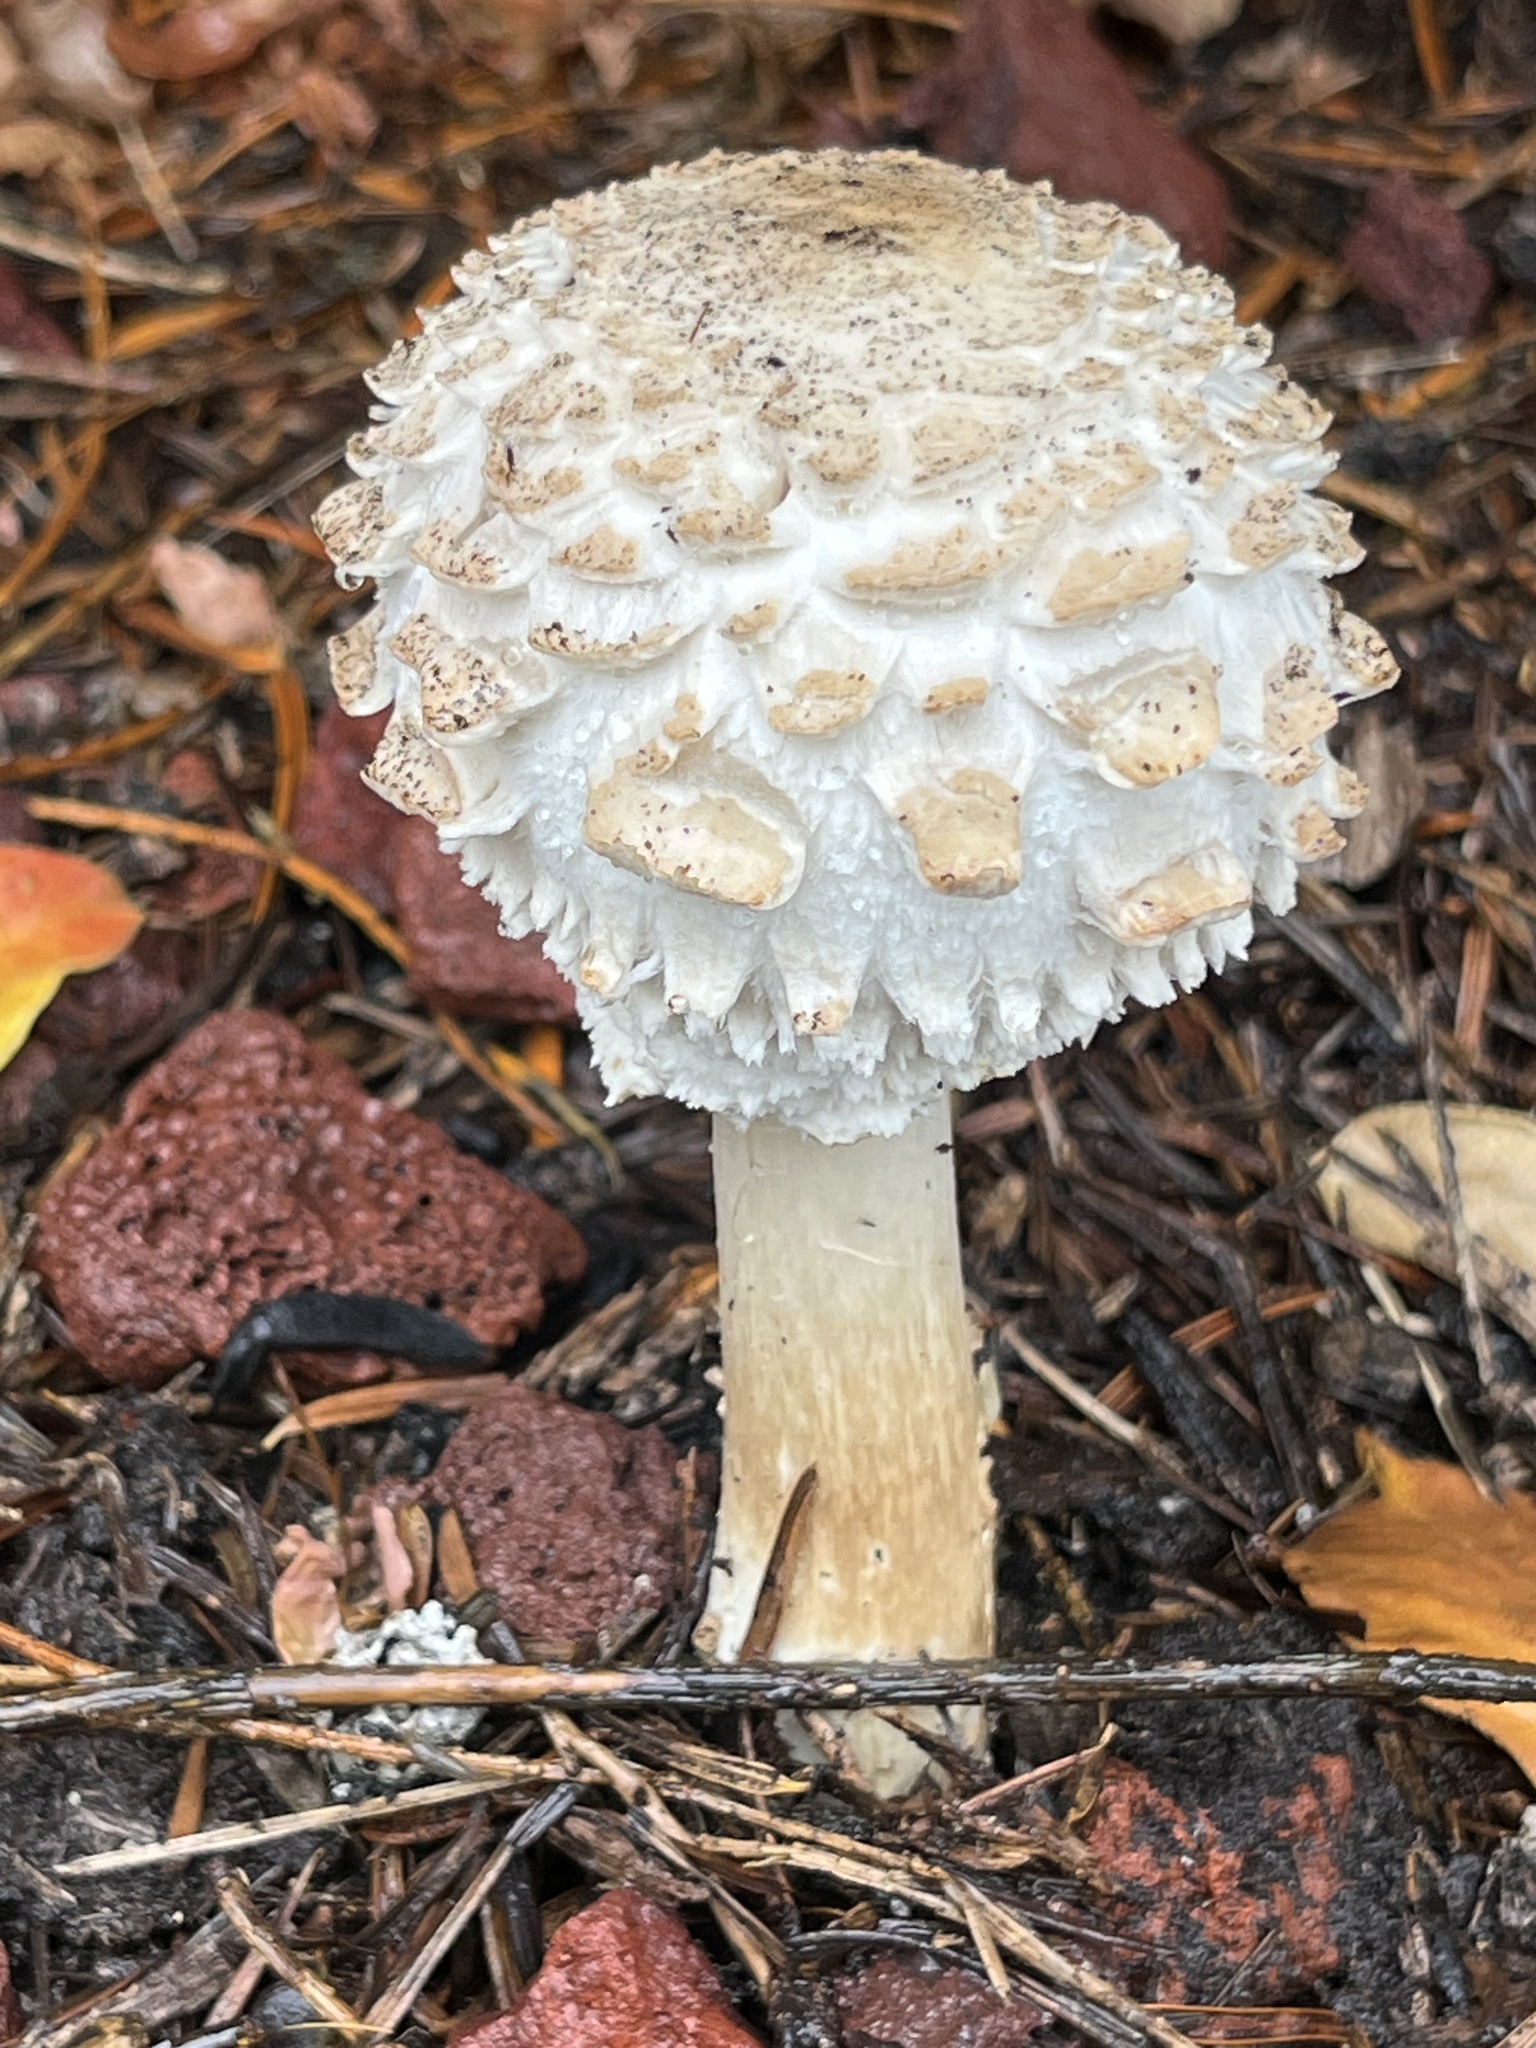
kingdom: Fungi
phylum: Basidiomycota
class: Agaricomycetes
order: Agaricales
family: Agaricaceae
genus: Chlorophyllum
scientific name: Chlorophyllum rhacodes
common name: Shaggy parasol
